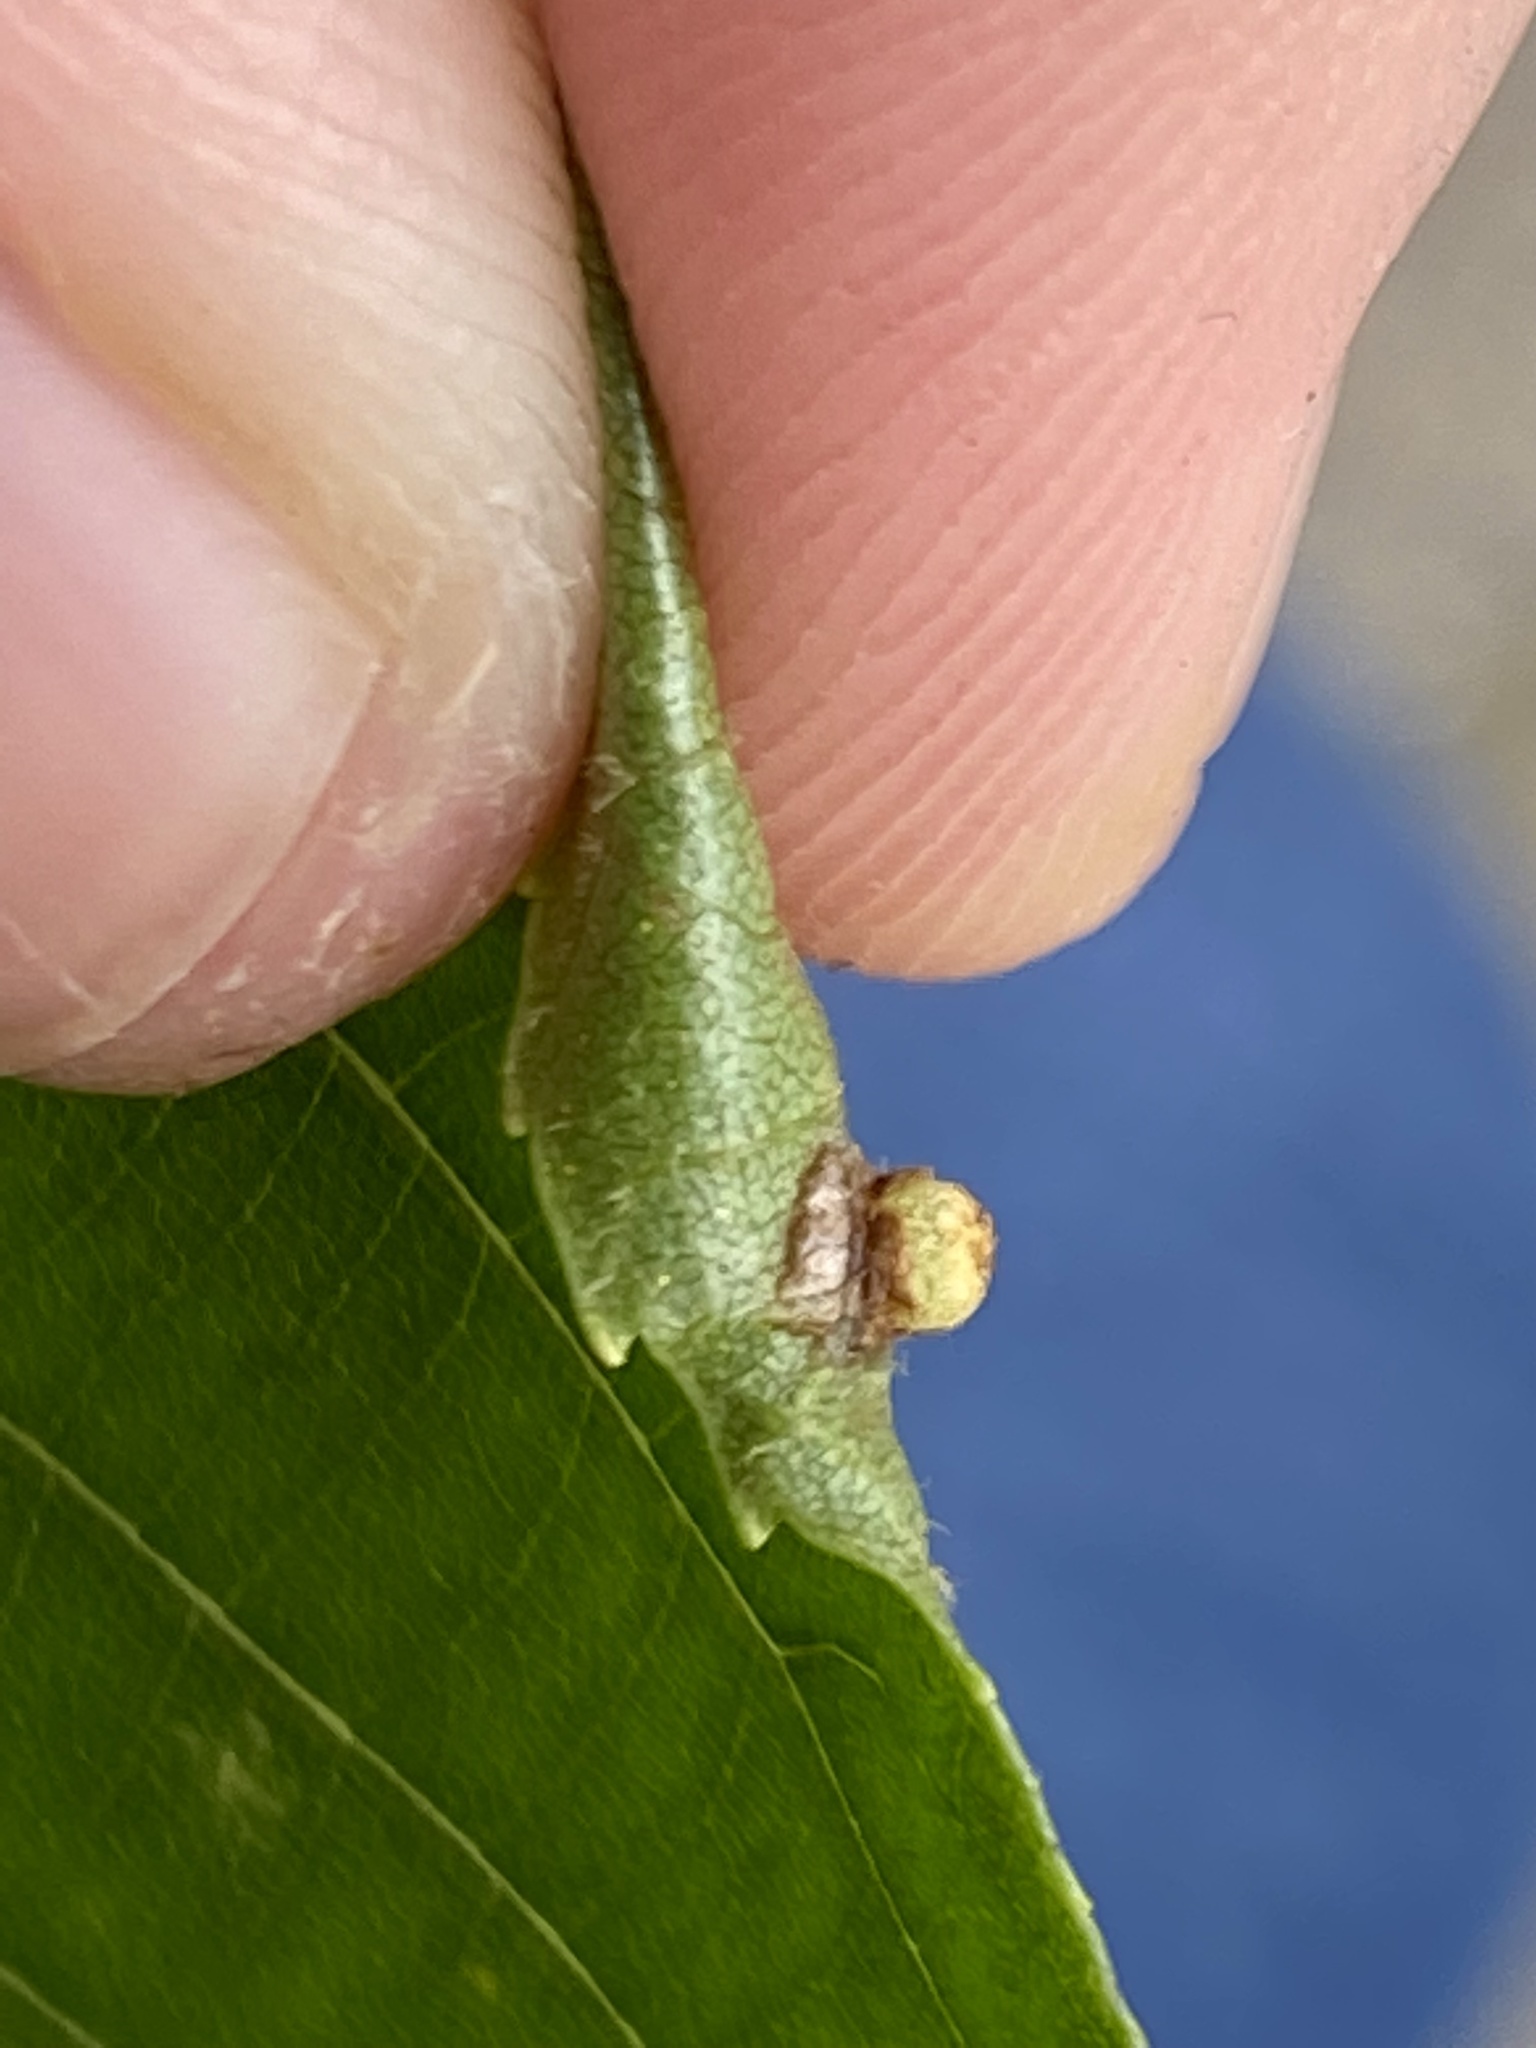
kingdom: Animalia
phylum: Arthropoda
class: Insecta
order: Diptera
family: Cecidomyiidae
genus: Caryomyia
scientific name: Caryomyia striolacrustum
